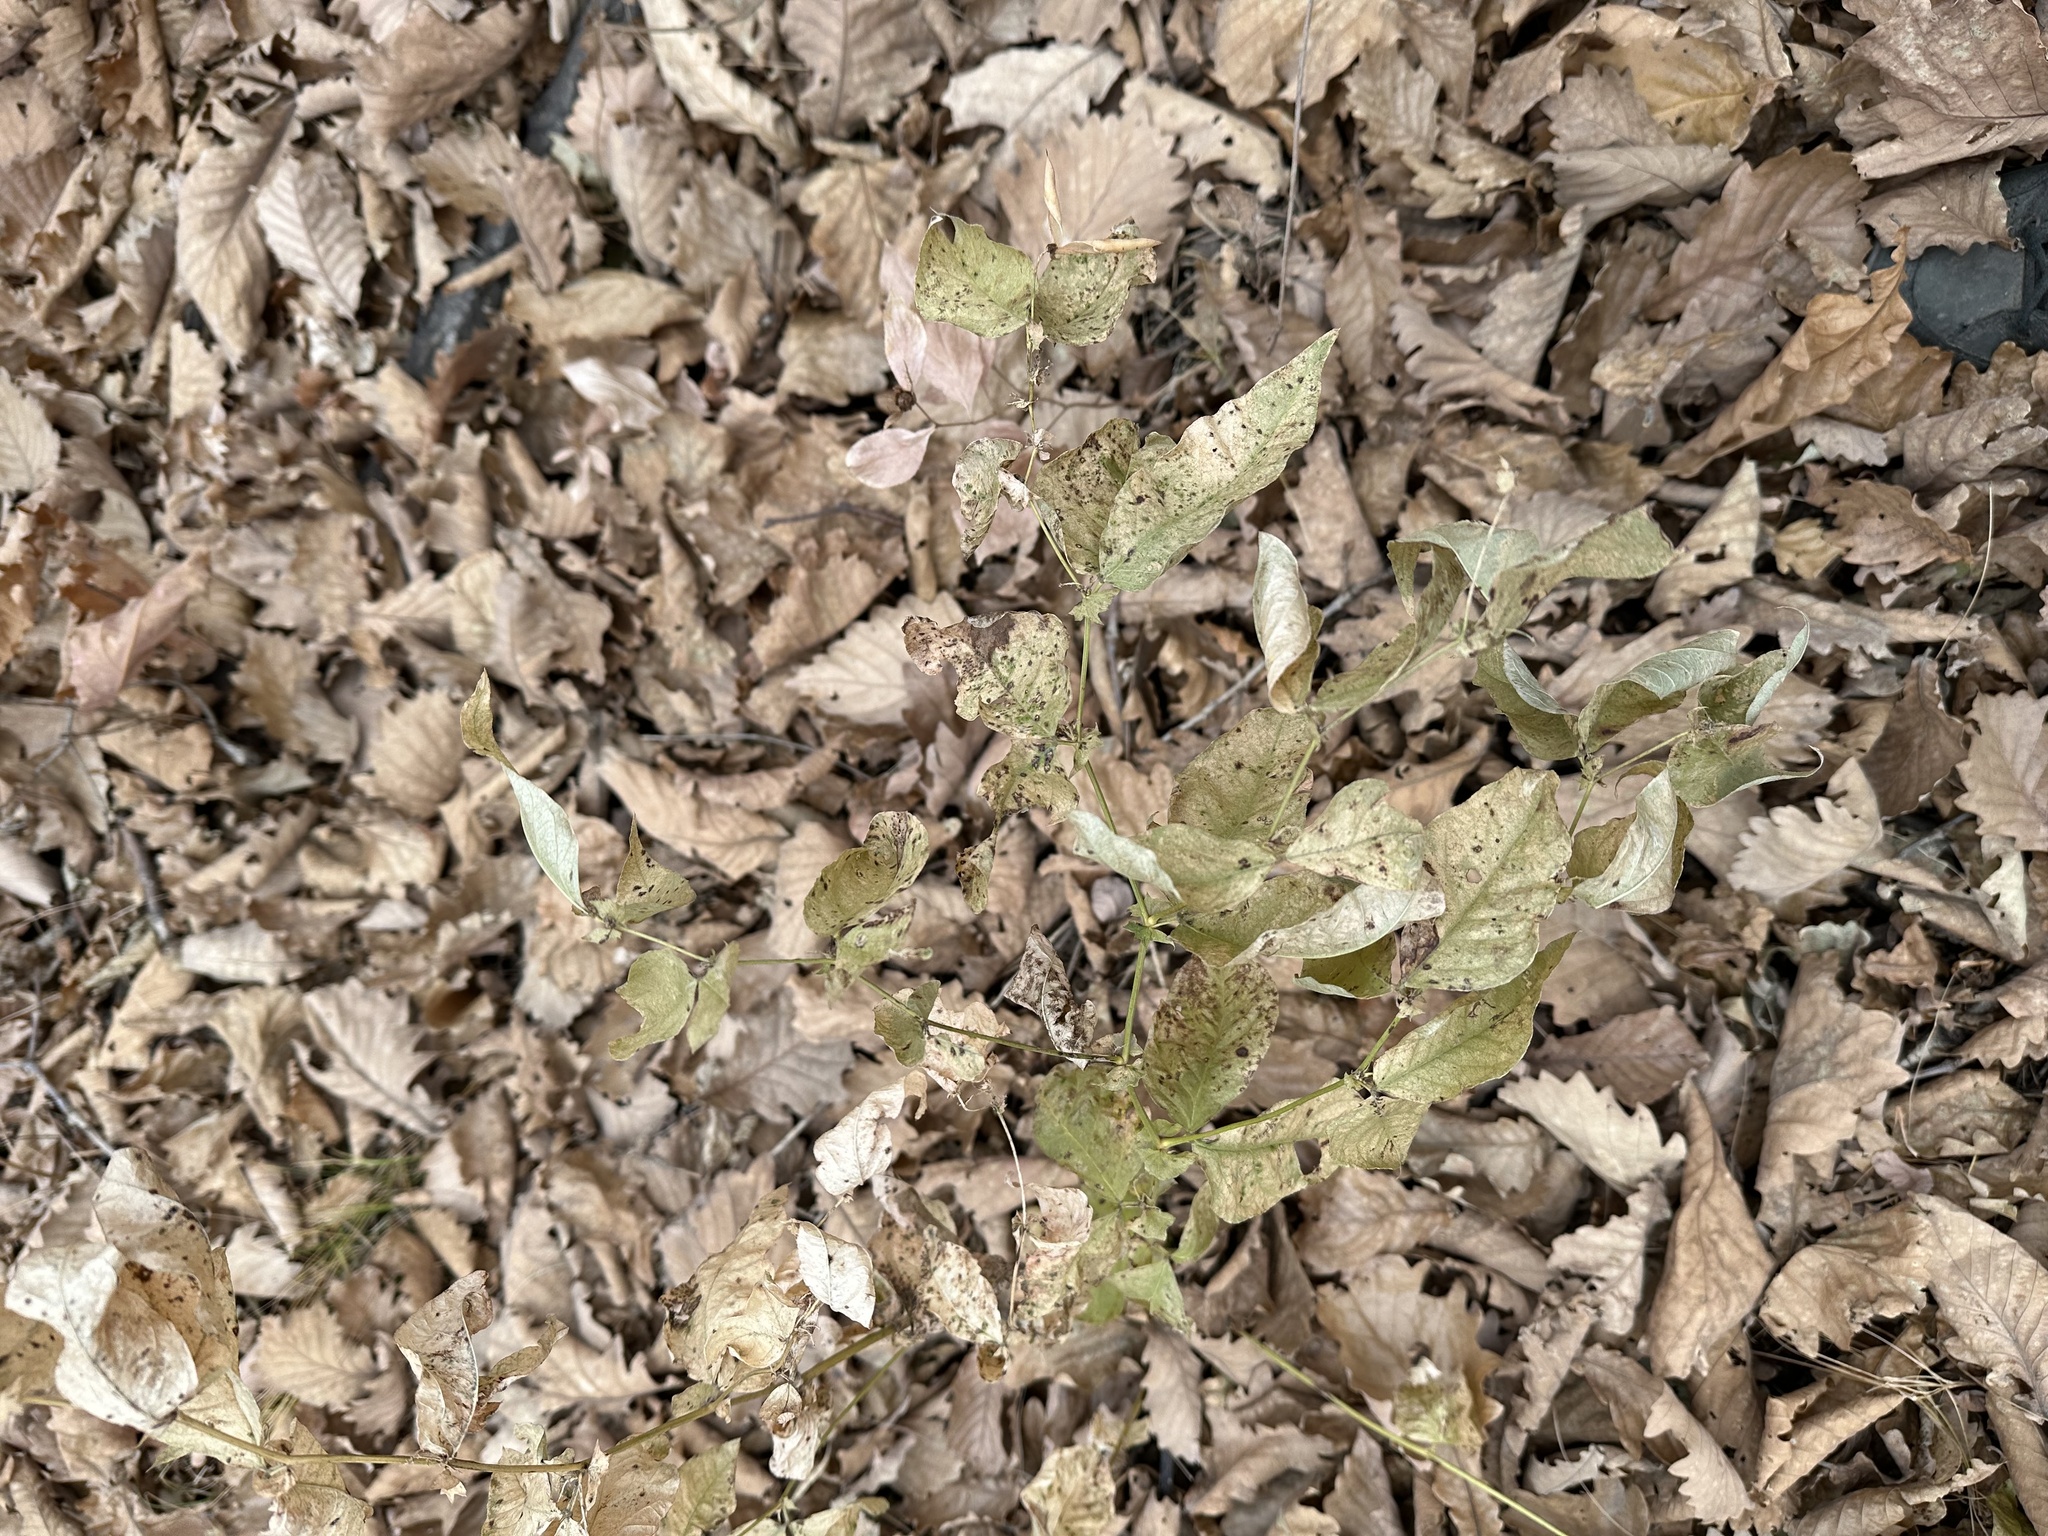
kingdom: Plantae
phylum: Tracheophyta
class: Magnoliopsida
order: Fabales
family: Fabaceae
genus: Vicia
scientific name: Vicia unijuga
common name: Two-leaf vetch
